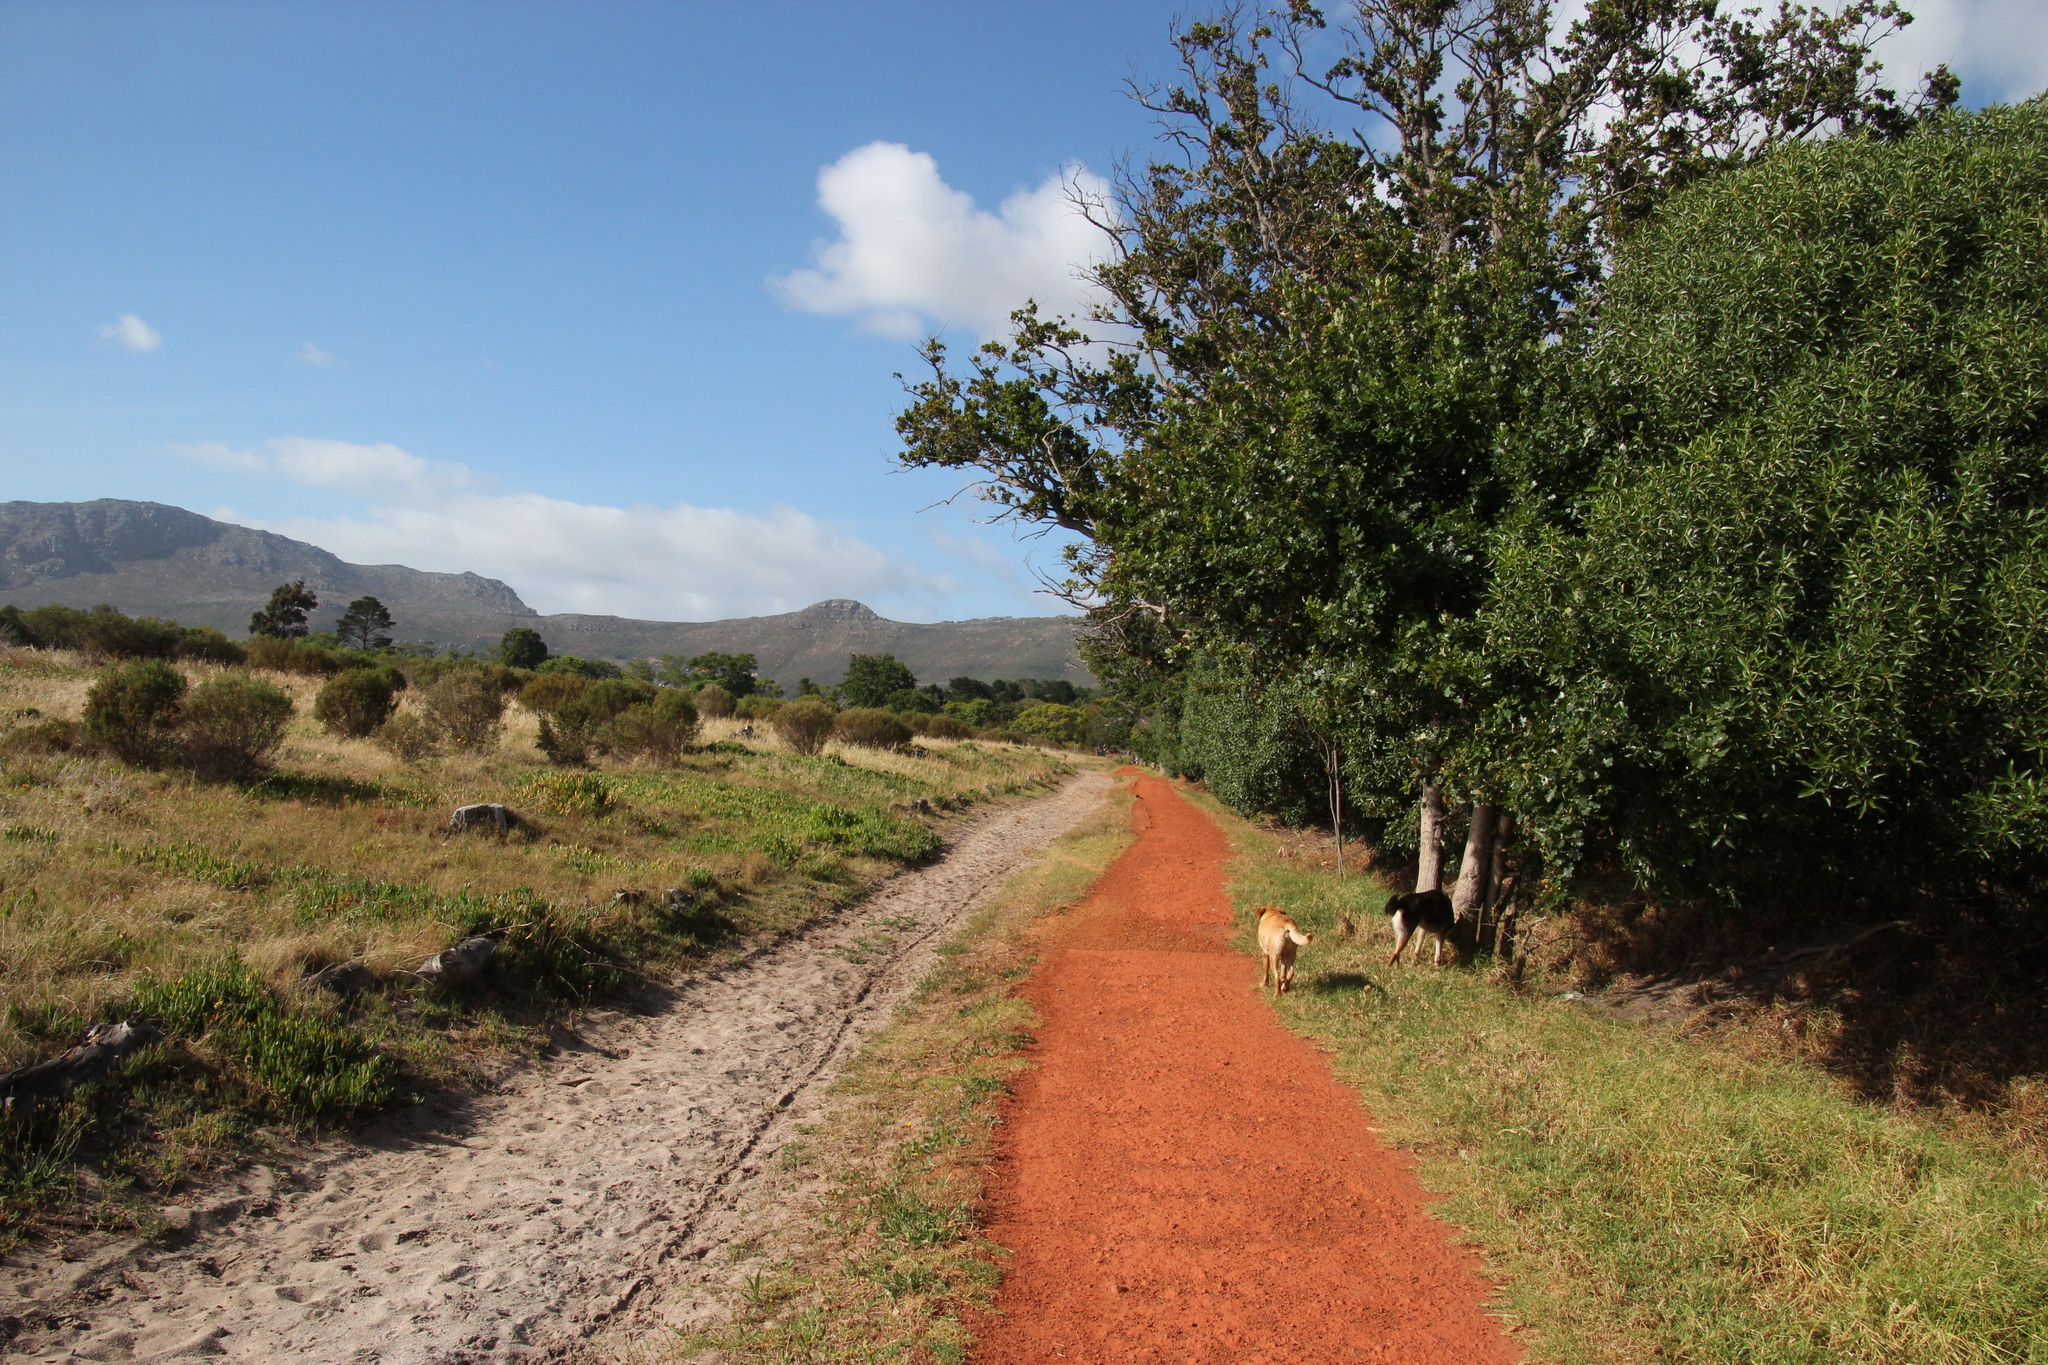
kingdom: Plantae
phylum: Tracheophyta
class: Magnoliopsida
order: Lamiales
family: Scrophulariaceae
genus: Myoporum
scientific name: Myoporum montanum
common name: Waterbush
